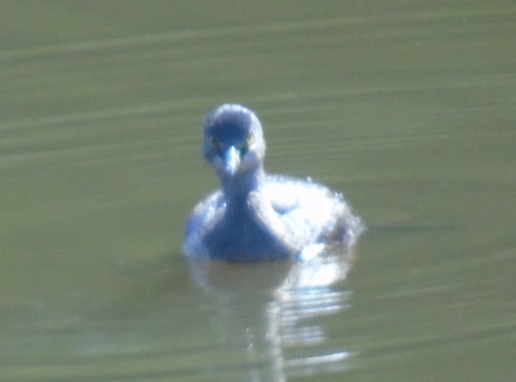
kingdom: Animalia
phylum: Chordata
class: Aves
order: Podicipediformes
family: Podicipedidae
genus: Tachybaptus
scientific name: Tachybaptus dominicus
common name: Least grebe
